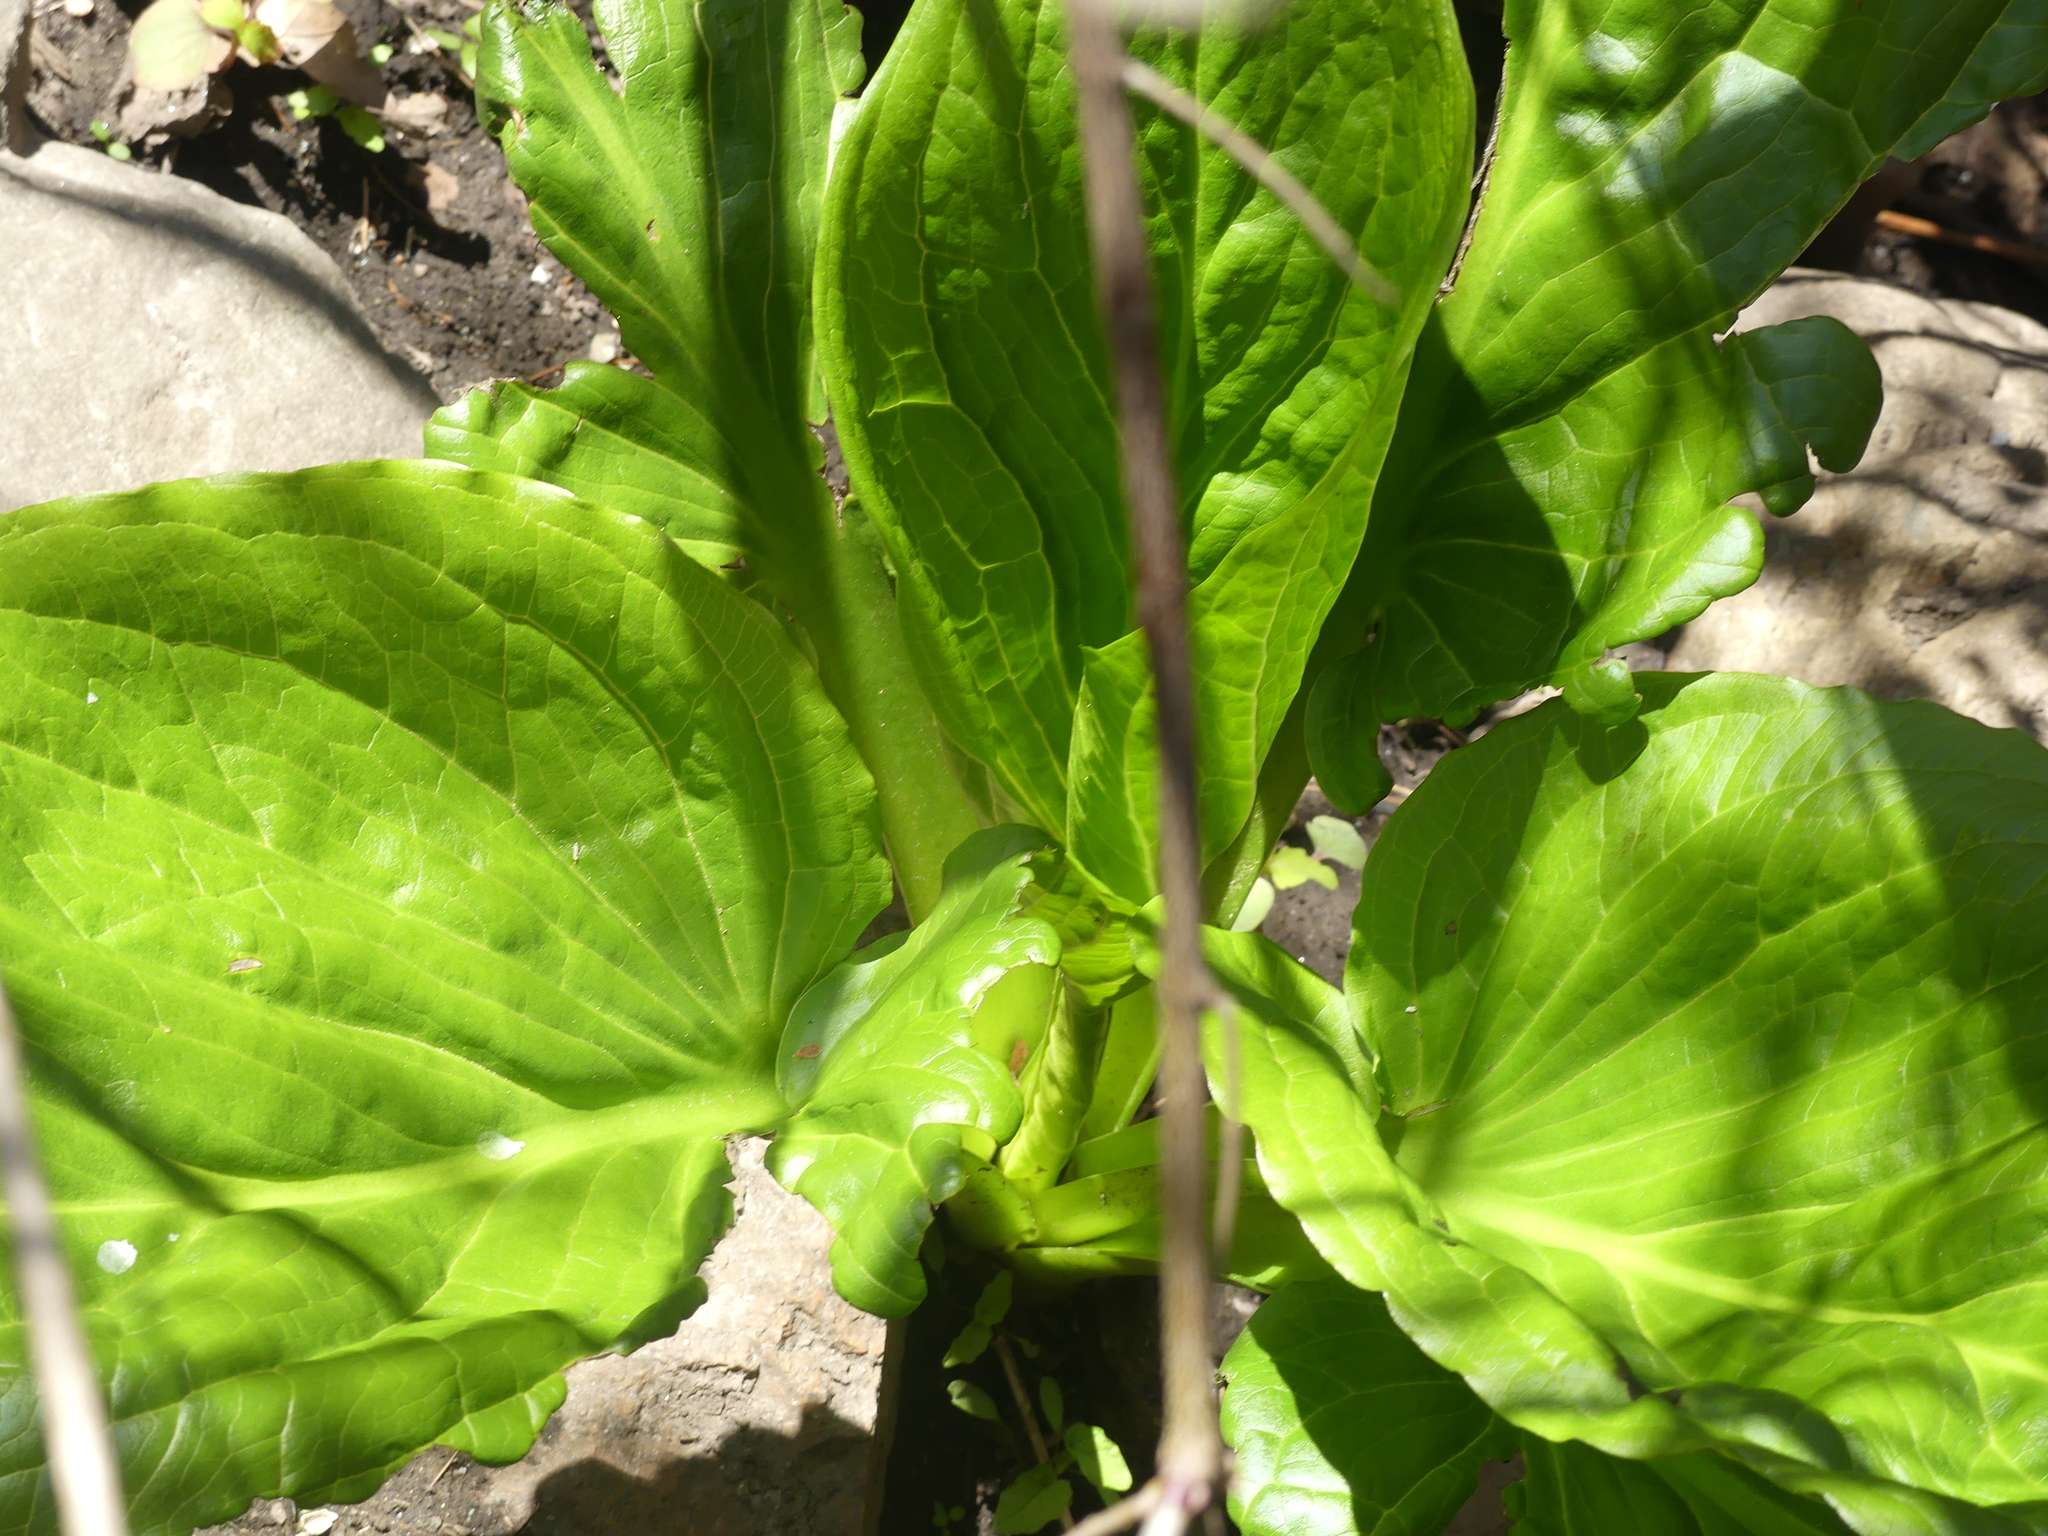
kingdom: Plantae
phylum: Tracheophyta
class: Liliopsida
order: Alismatales
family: Araceae
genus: Symplocarpus
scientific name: Symplocarpus foetidus
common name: Eastern skunk cabbage
